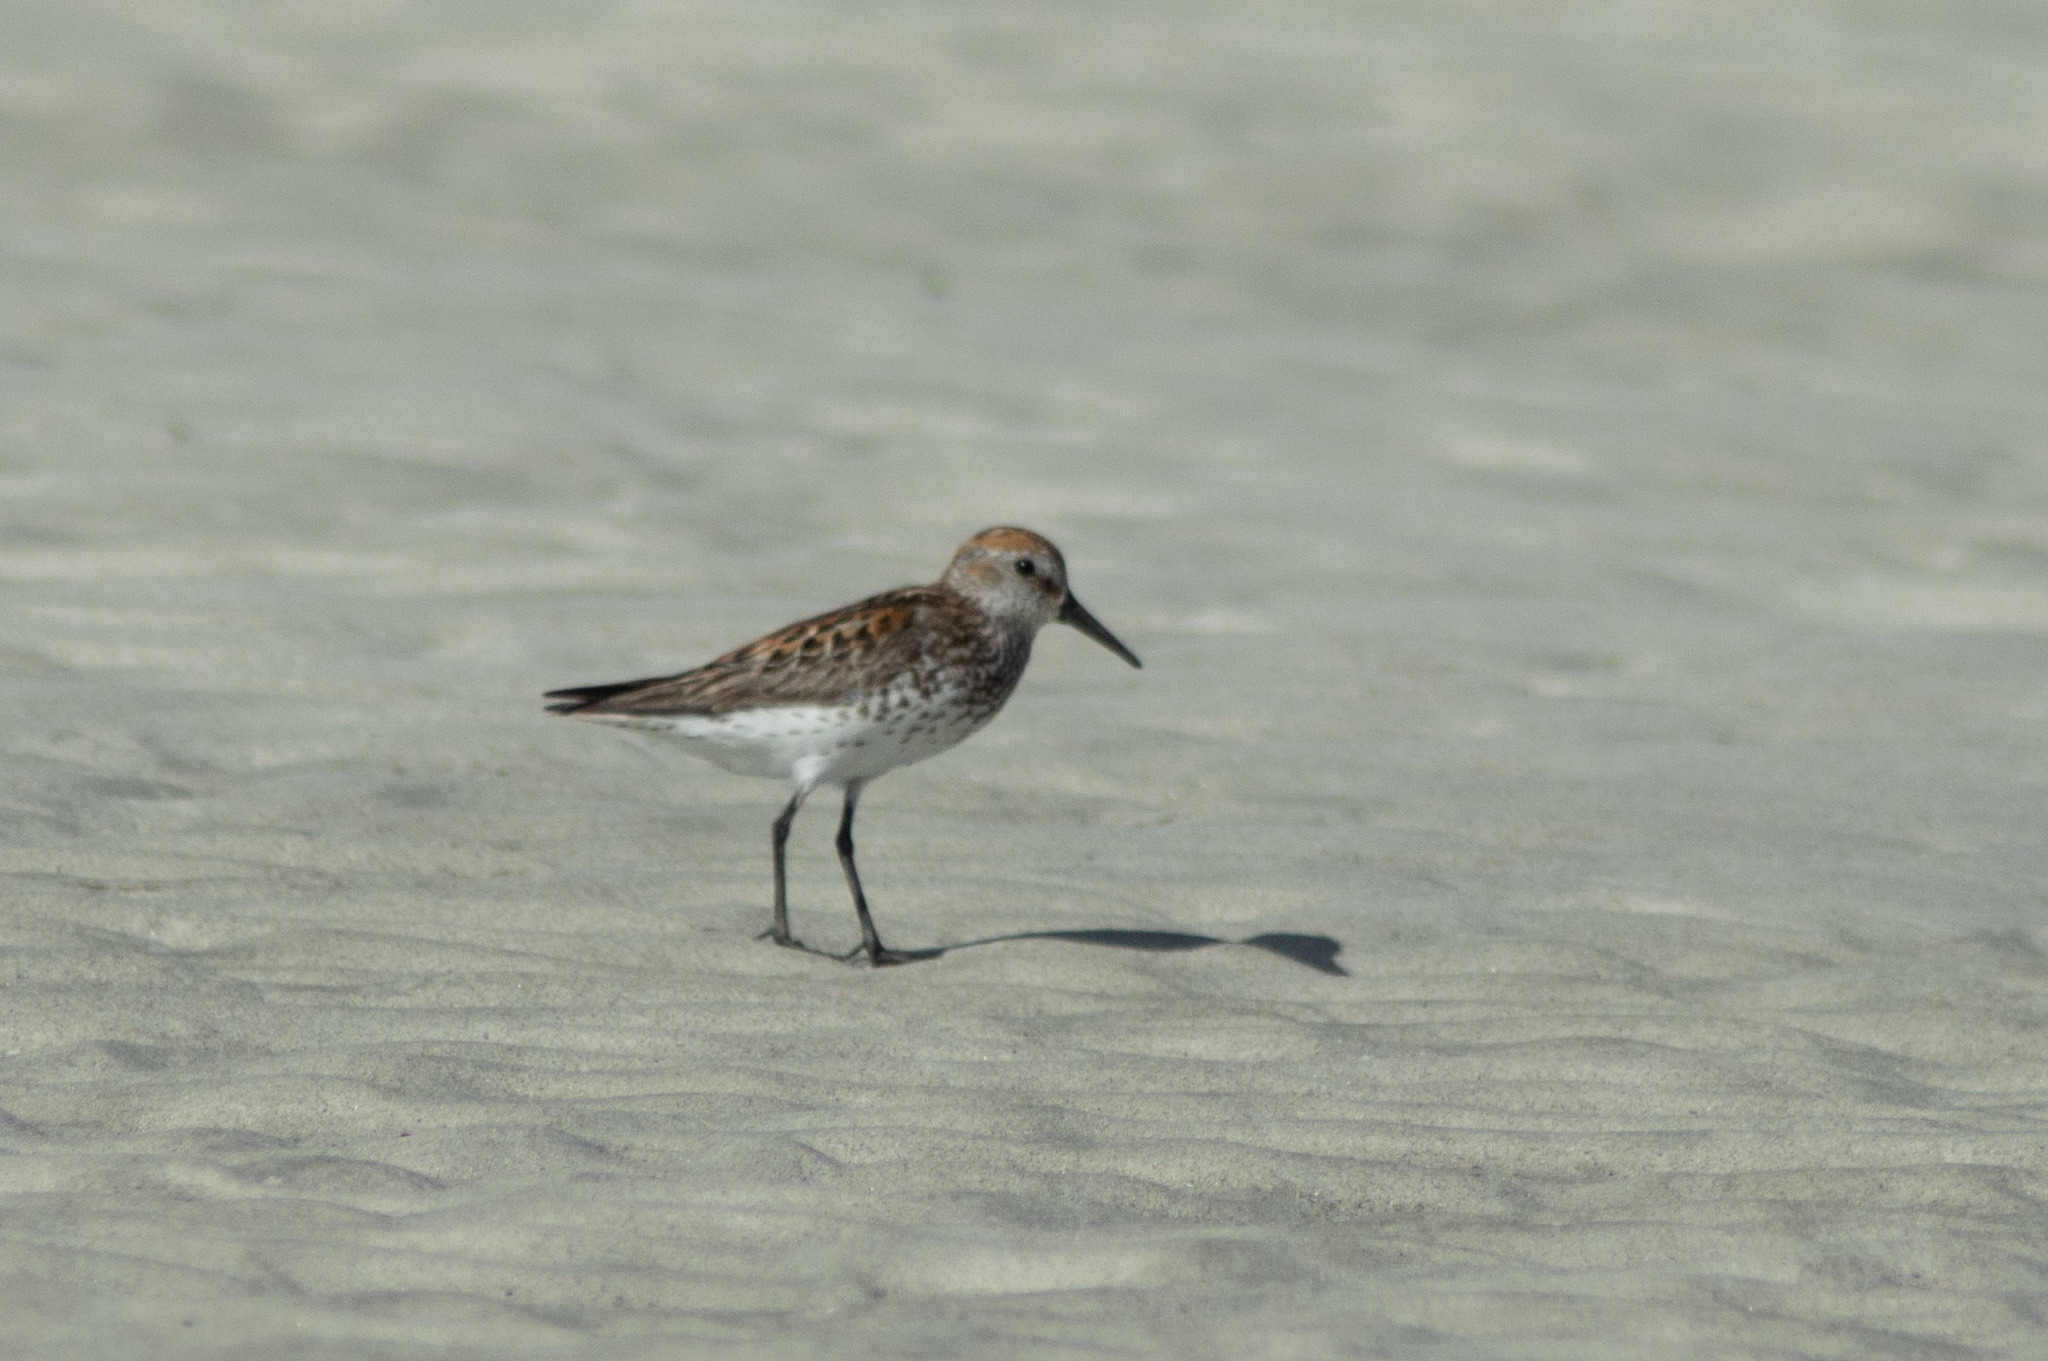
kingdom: Animalia
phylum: Chordata
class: Aves
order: Charadriiformes
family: Scolopacidae
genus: Calidris
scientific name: Calidris mauri
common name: Western sandpiper
